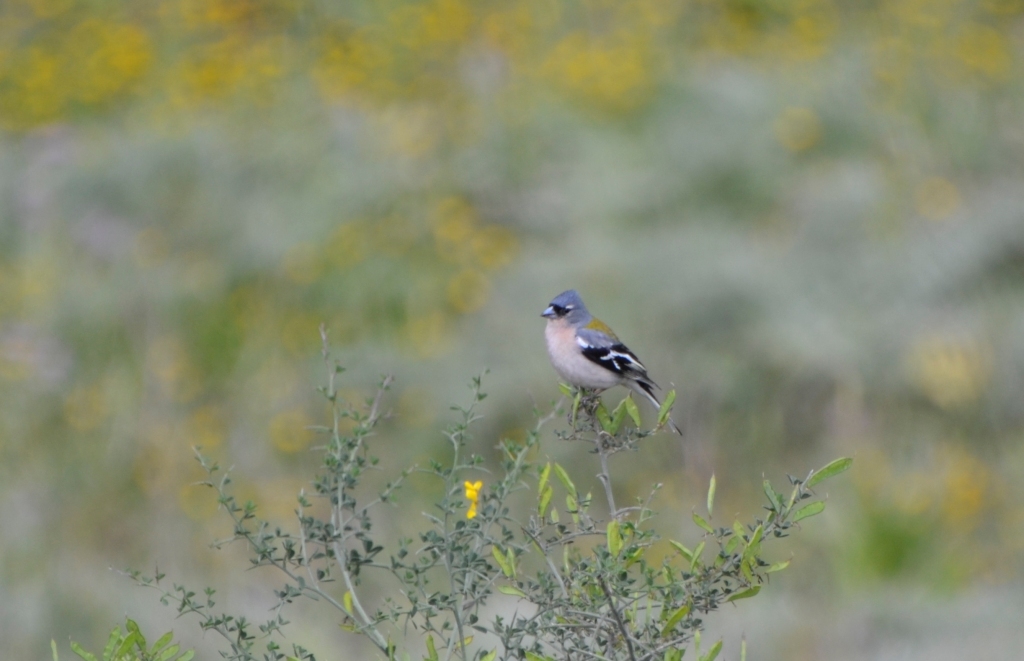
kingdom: Animalia
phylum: Chordata
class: Aves
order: Passeriformes
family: Fringillidae
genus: Fringilla
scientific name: Fringilla spodiogenys
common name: African chaffinch
